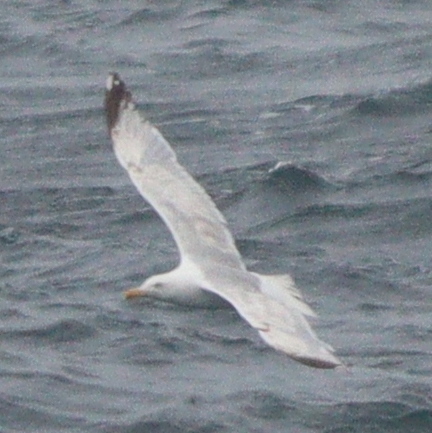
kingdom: Animalia
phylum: Chordata
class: Aves
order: Charadriiformes
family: Laridae
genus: Larus
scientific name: Larus argentatus
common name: Herring gull
